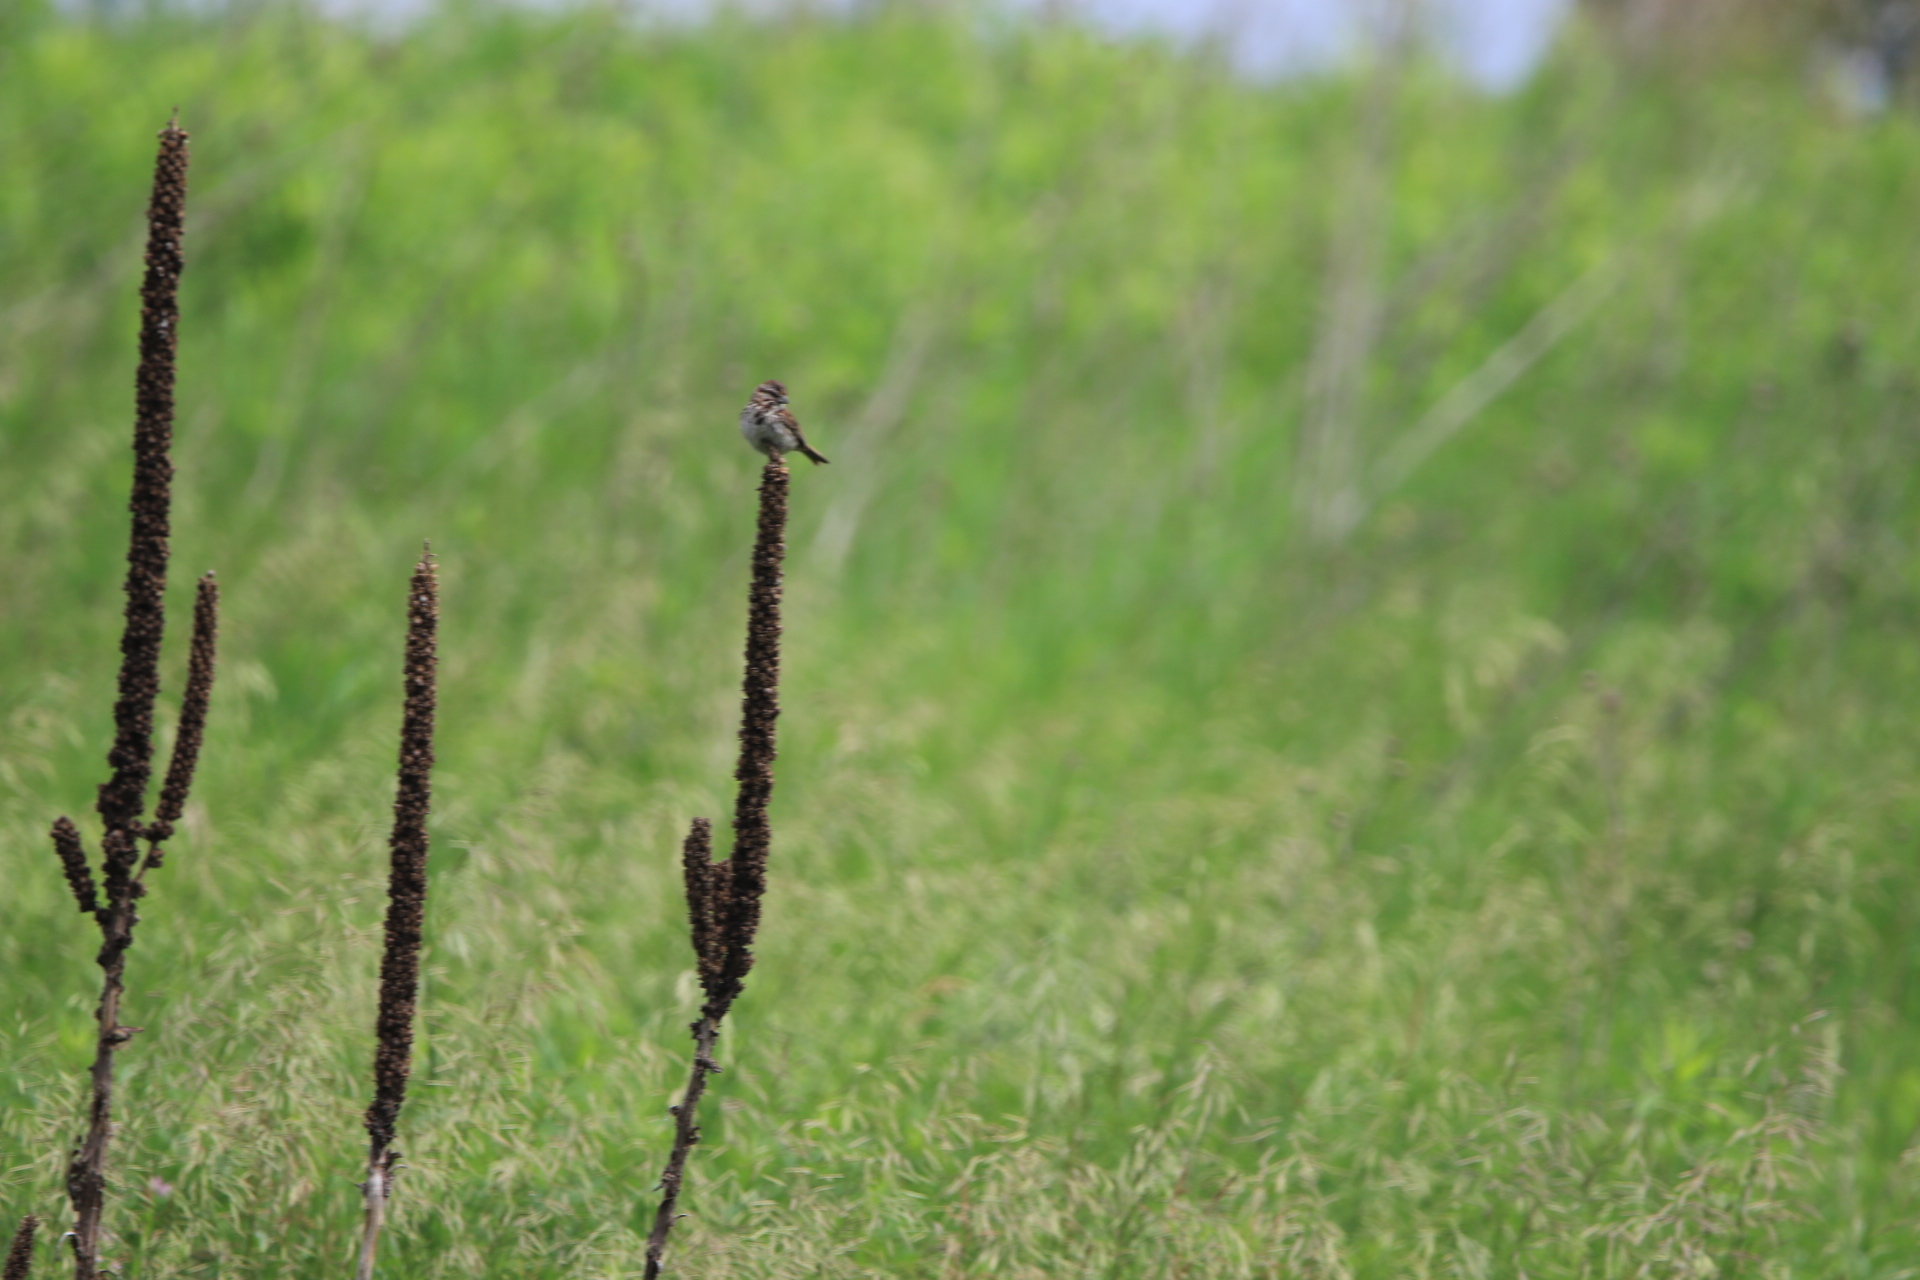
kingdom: Animalia
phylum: Chordata
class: Aves
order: Passeriformes
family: Passerellidae
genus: Melospiza
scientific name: Melospiza melodia
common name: Song sparrow
